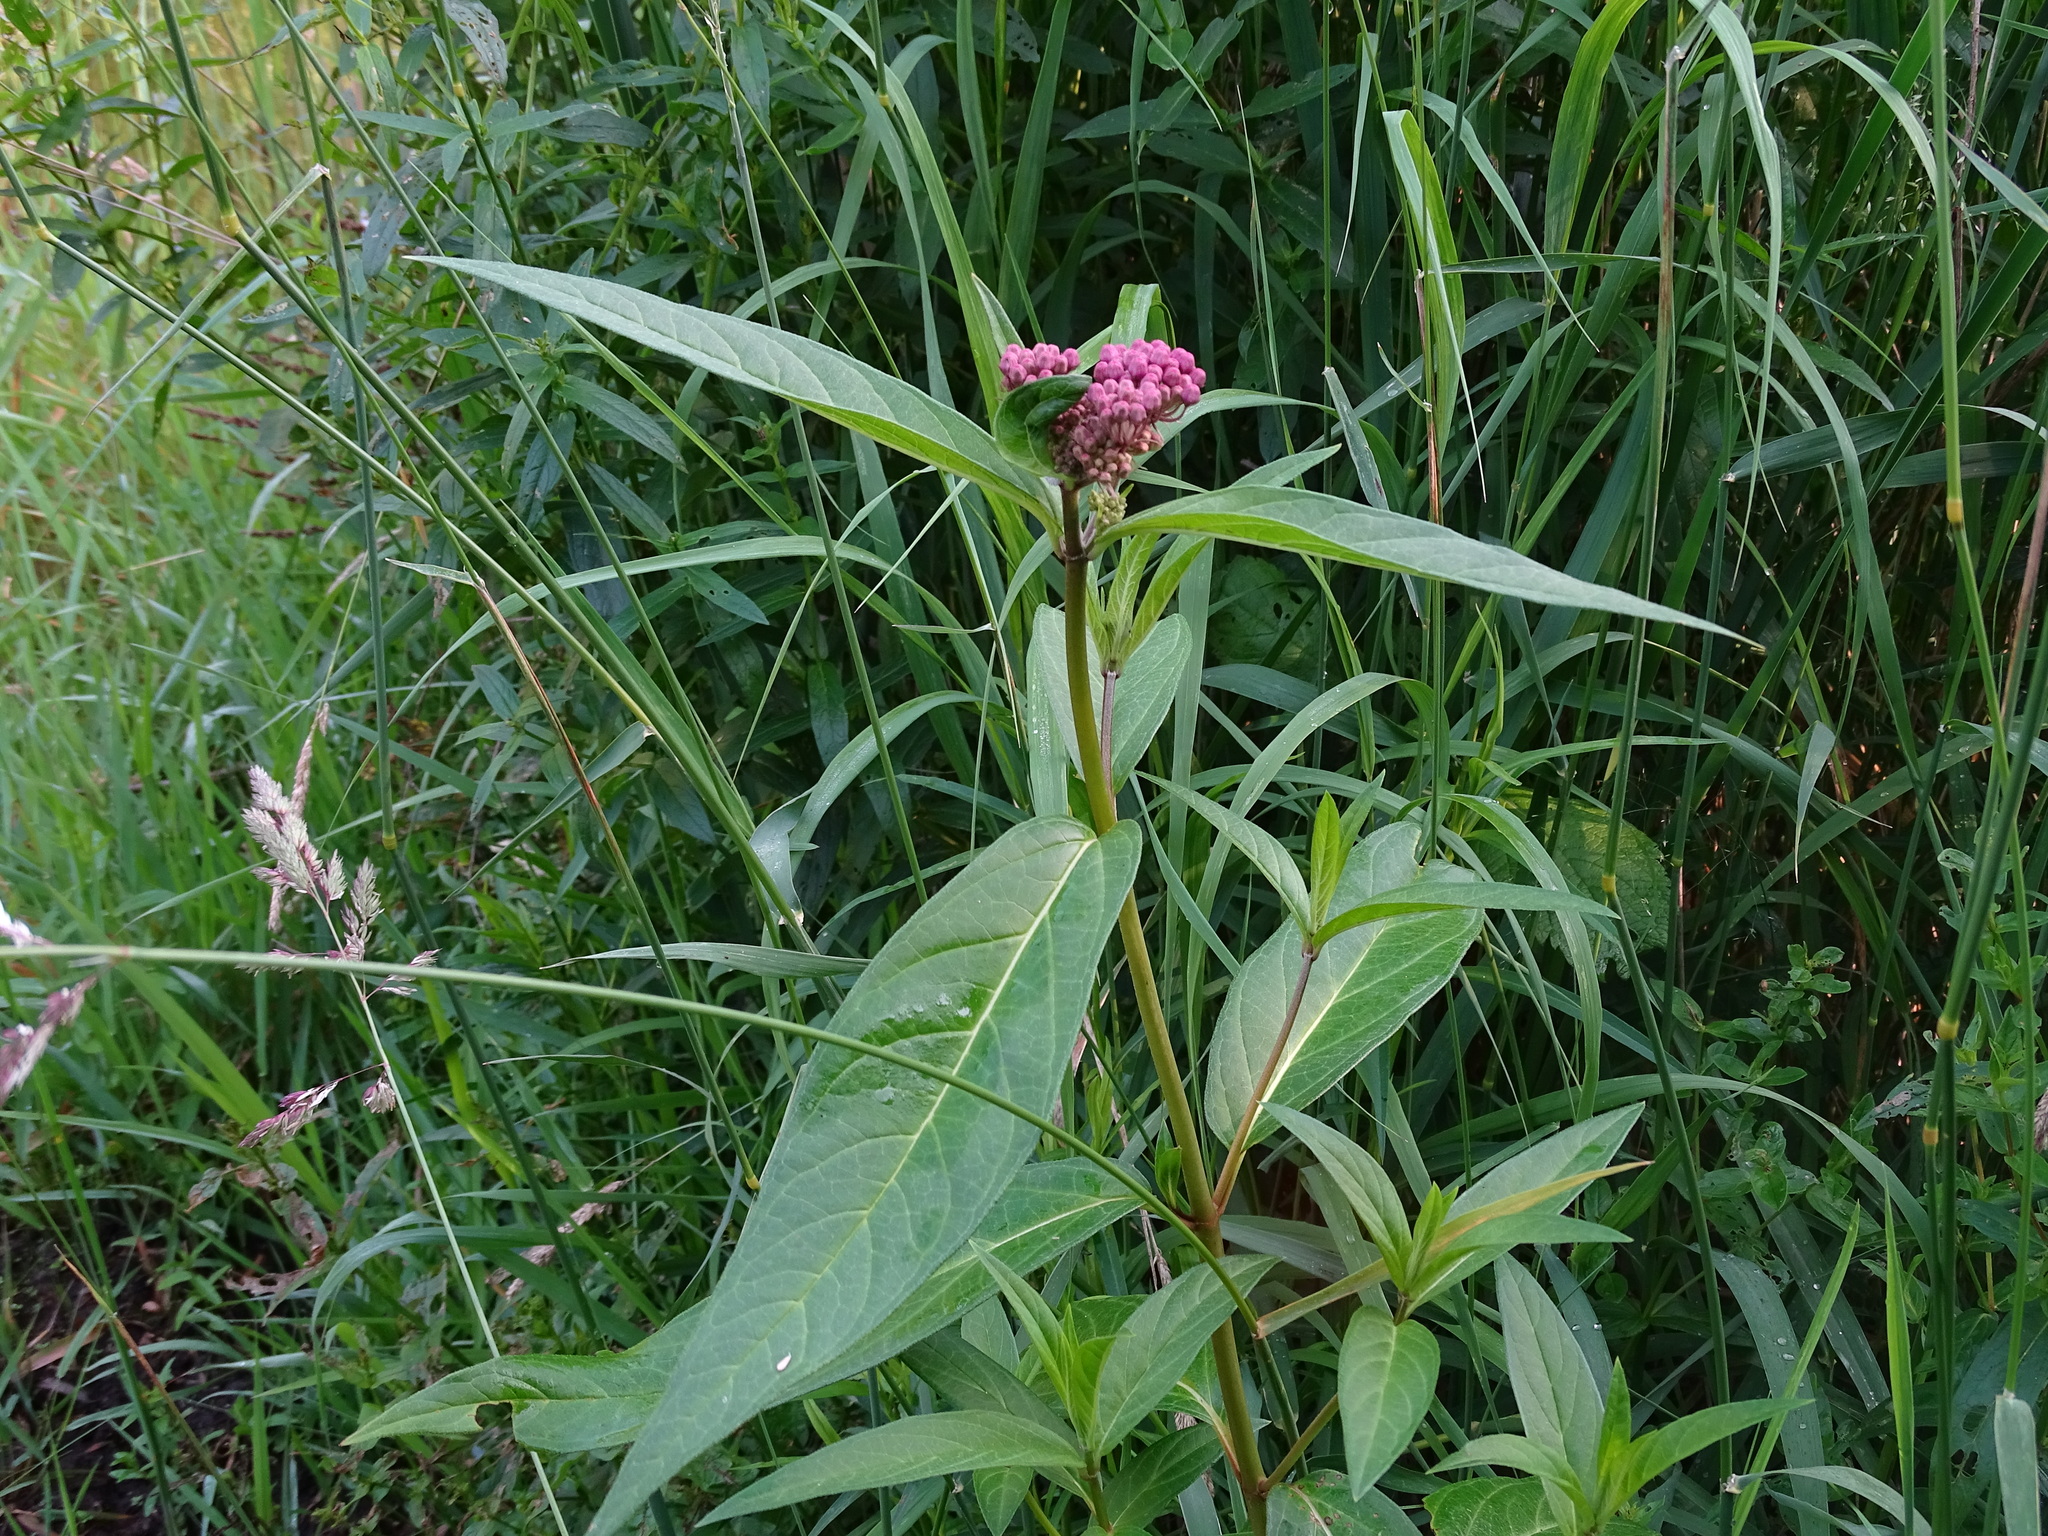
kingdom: Plantae
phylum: Tracheophyta
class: Magnoliopsida
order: Gentianales
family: Apocynaceae
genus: Asclepias
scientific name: Asclepias incarnata
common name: Swamp milkweed
